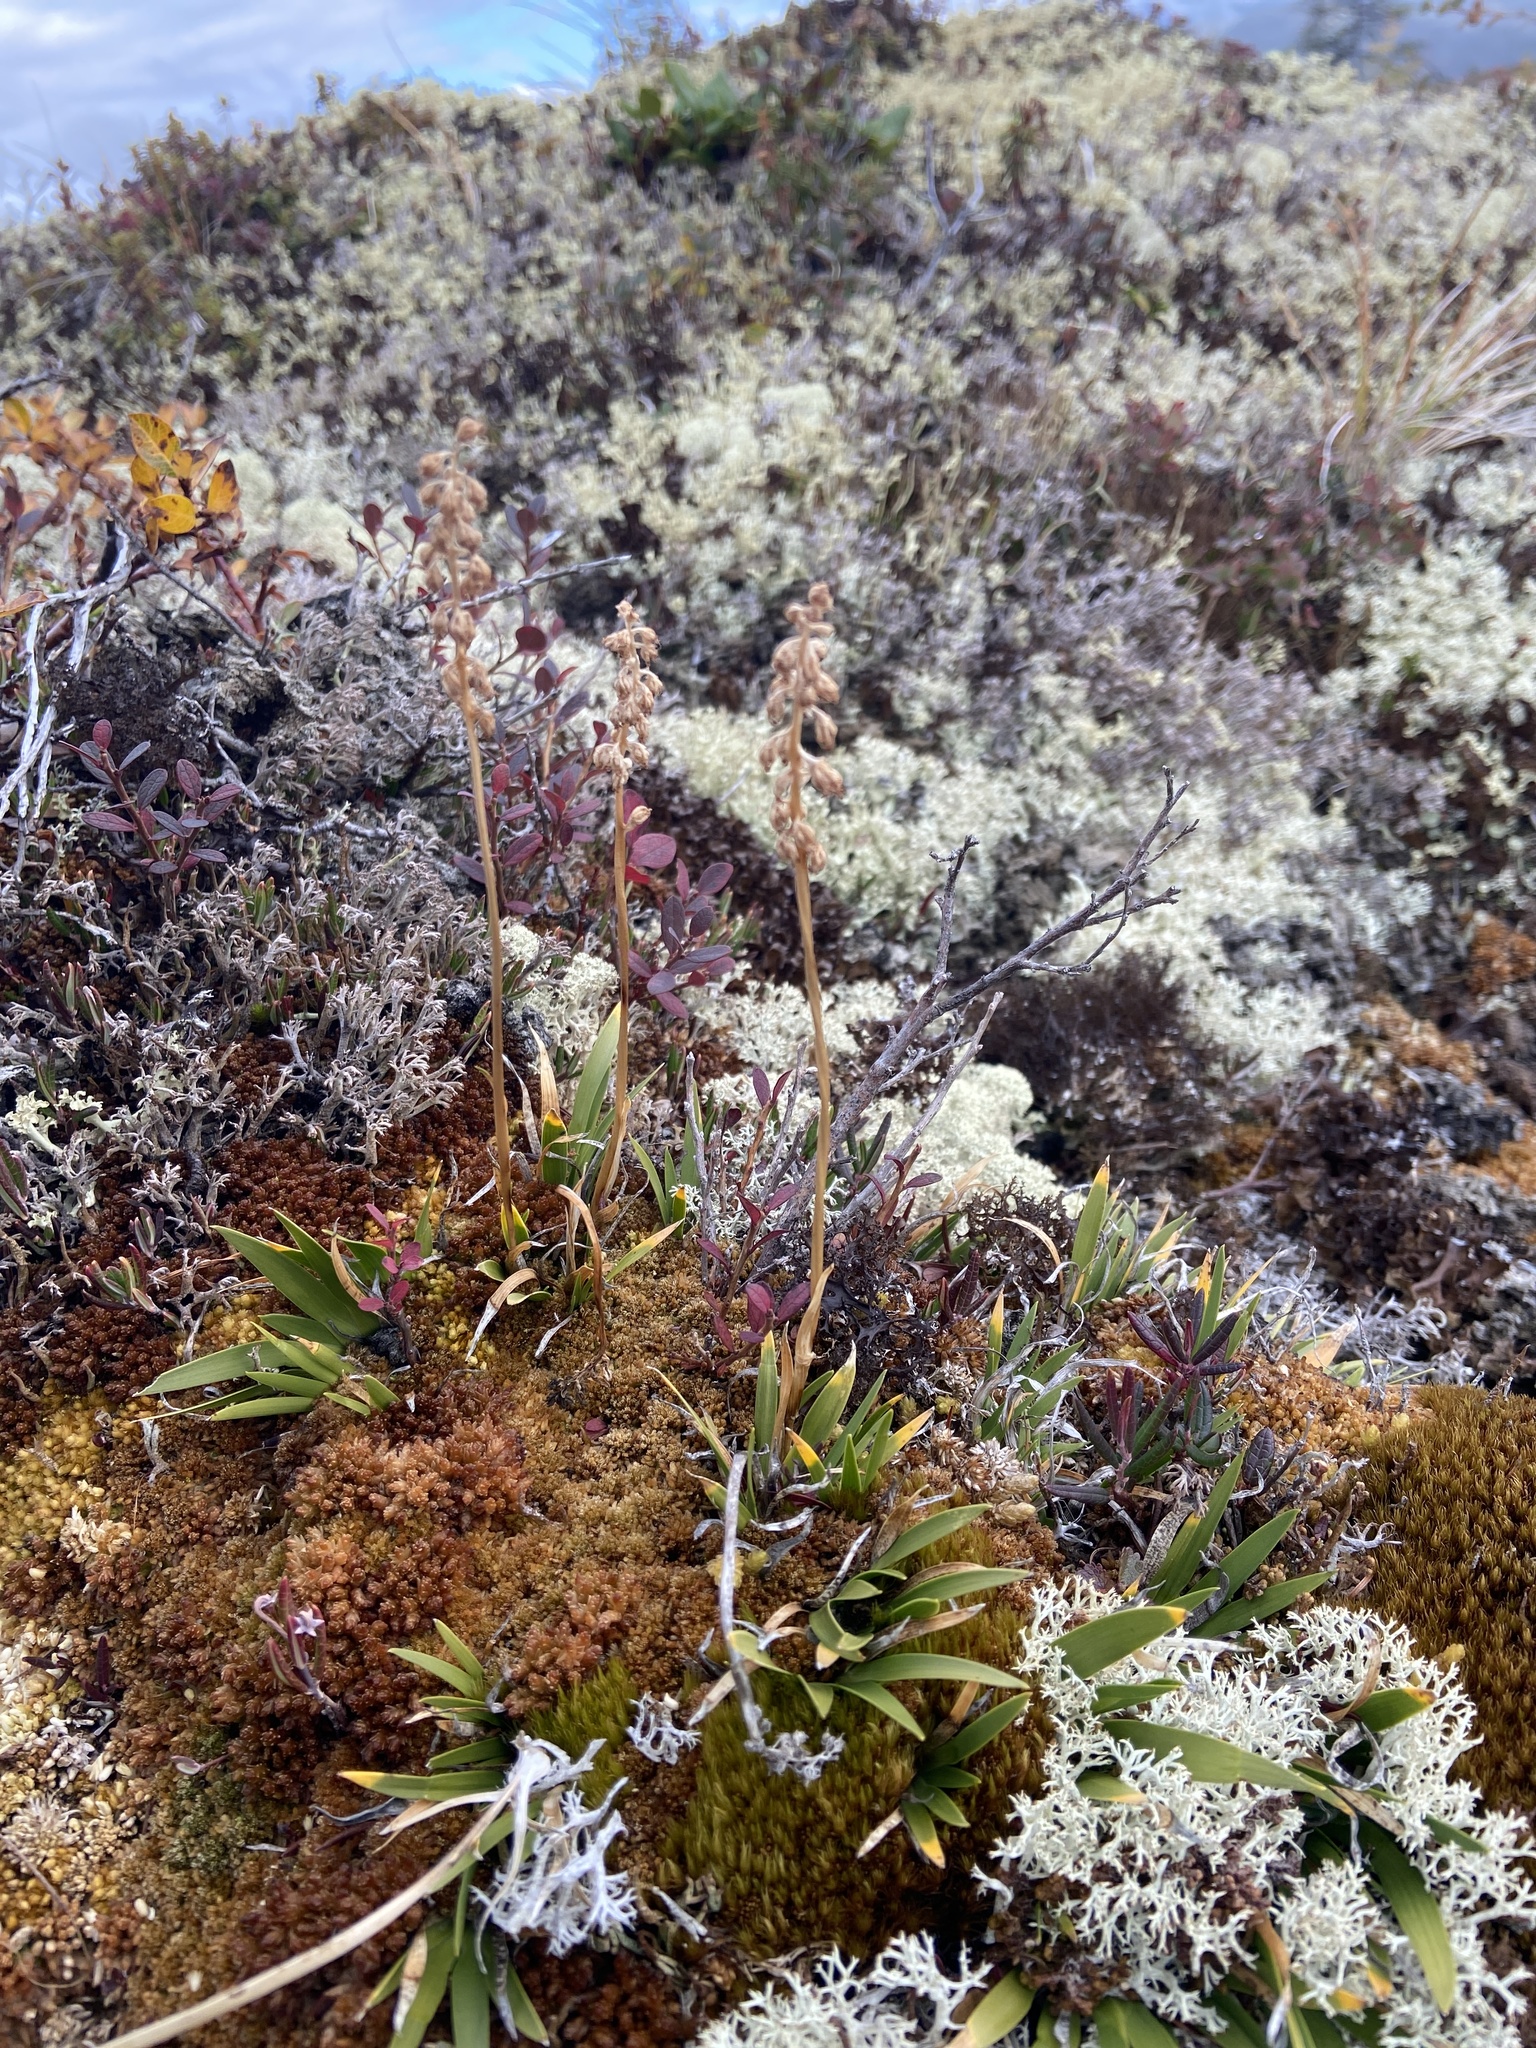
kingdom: Plantae
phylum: Tracheophyta
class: Liliopsida
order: Alismatales
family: Tofieldiaceae
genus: Tofieldia
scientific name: Tofieldia coccinea
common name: Northern false asphodel
